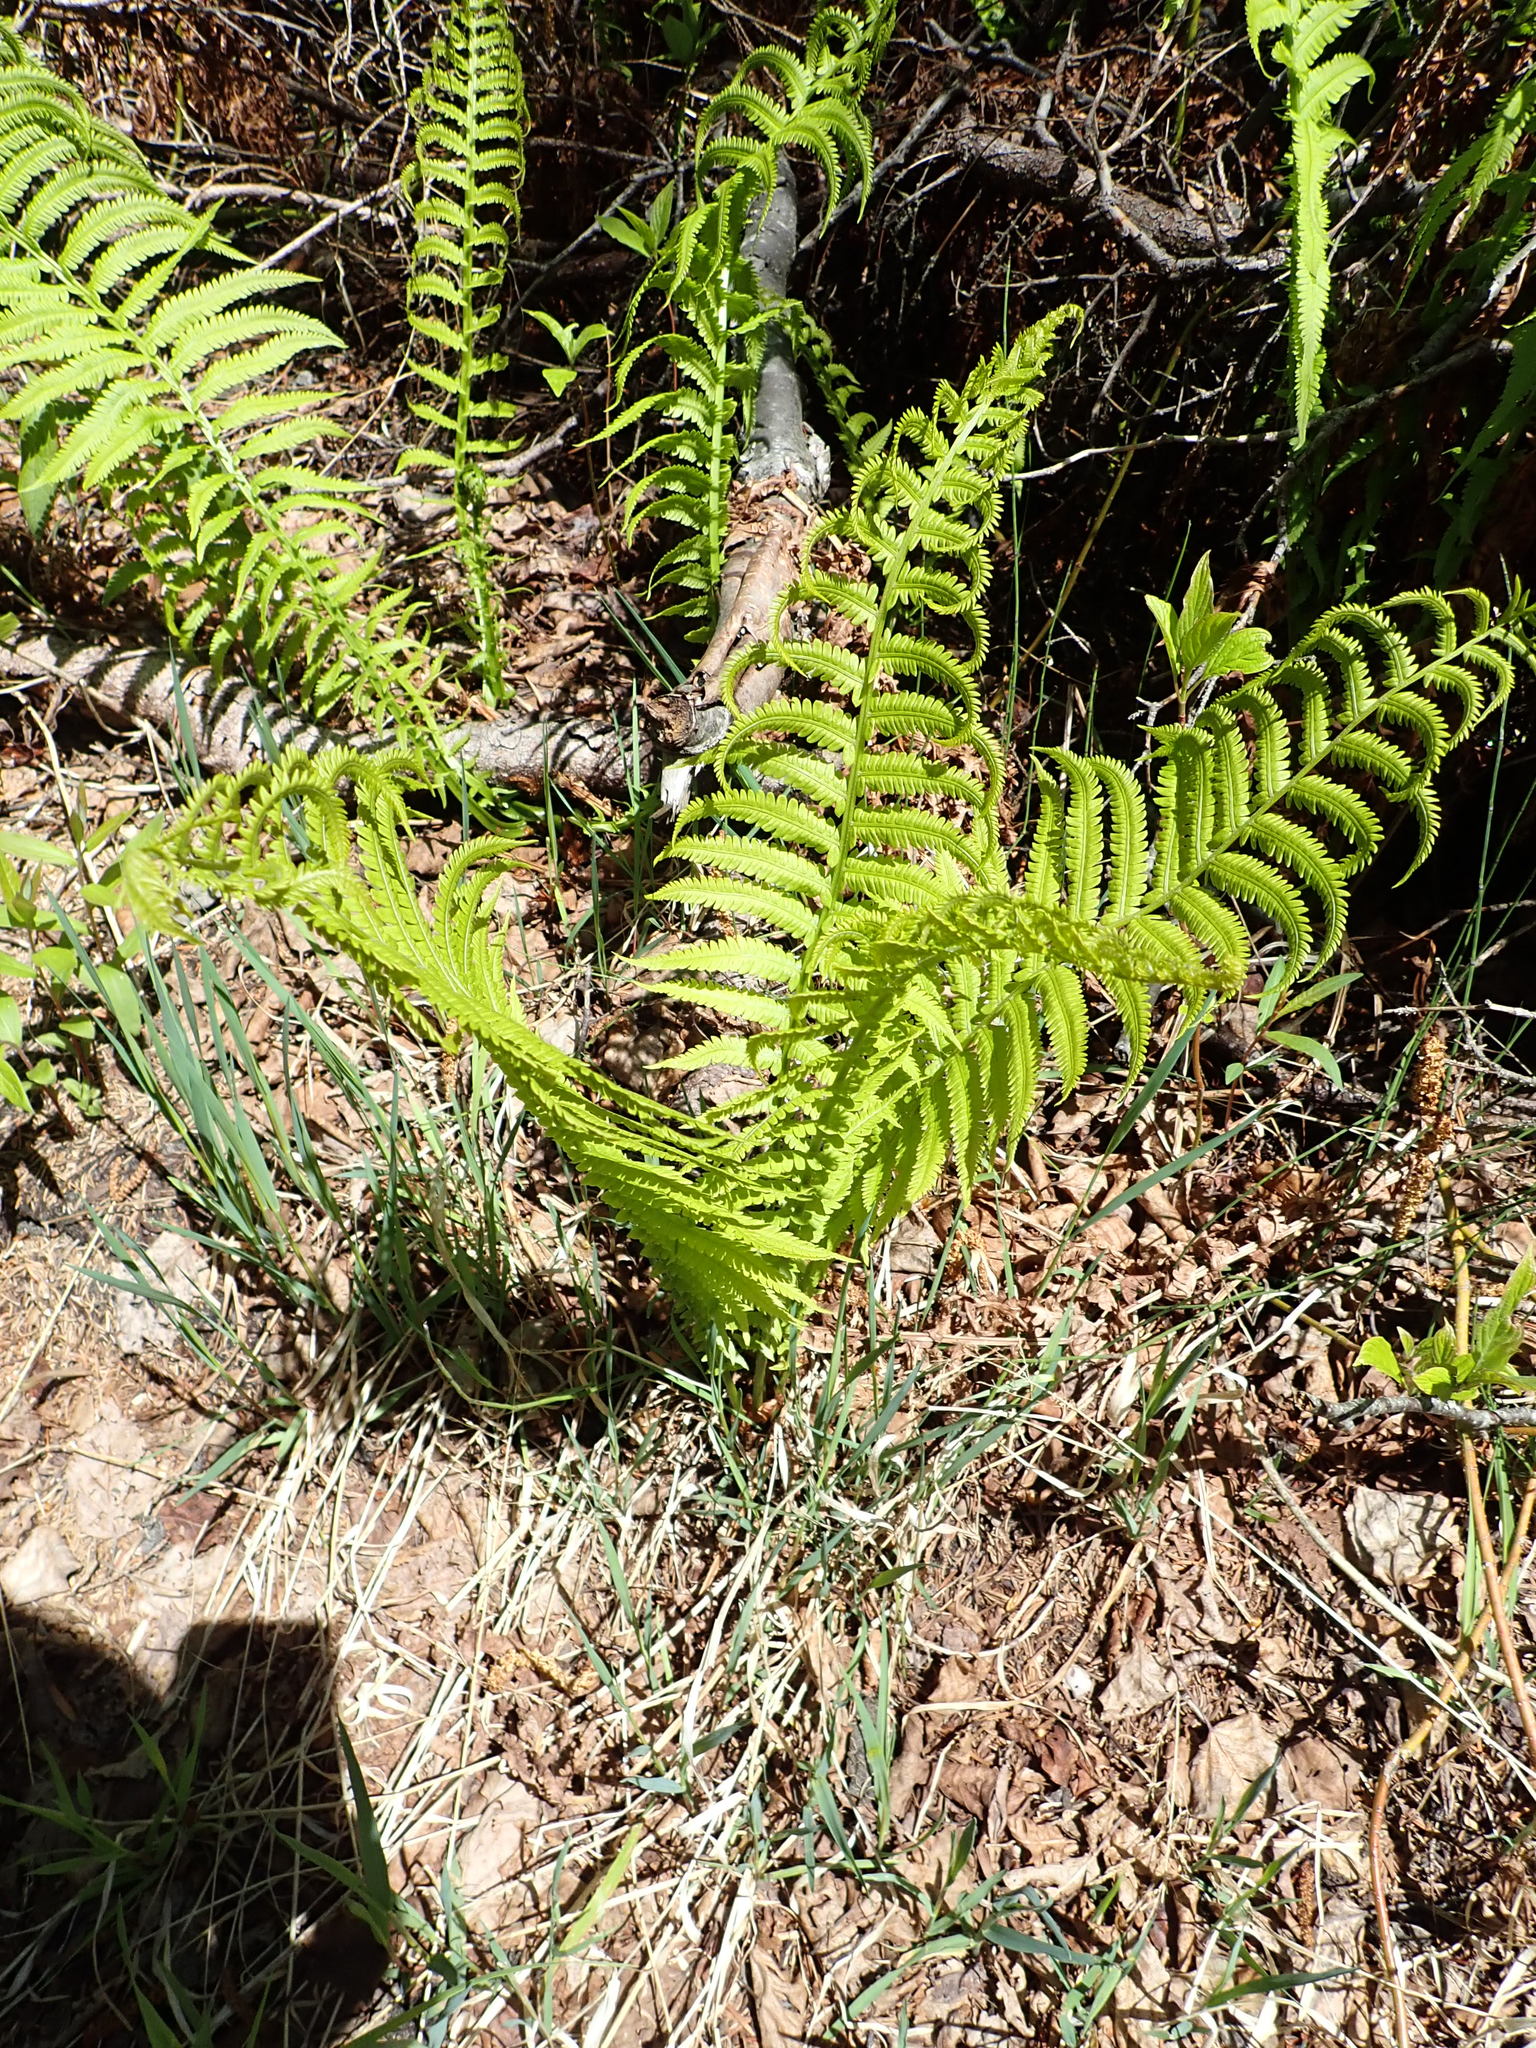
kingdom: Plantae
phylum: Tracheophyta
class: Polypodiopsida
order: Polypodiales
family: Onocleaceae
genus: Matteuccia
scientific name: Matteuccia struthiopteris
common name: Ostrich fern
